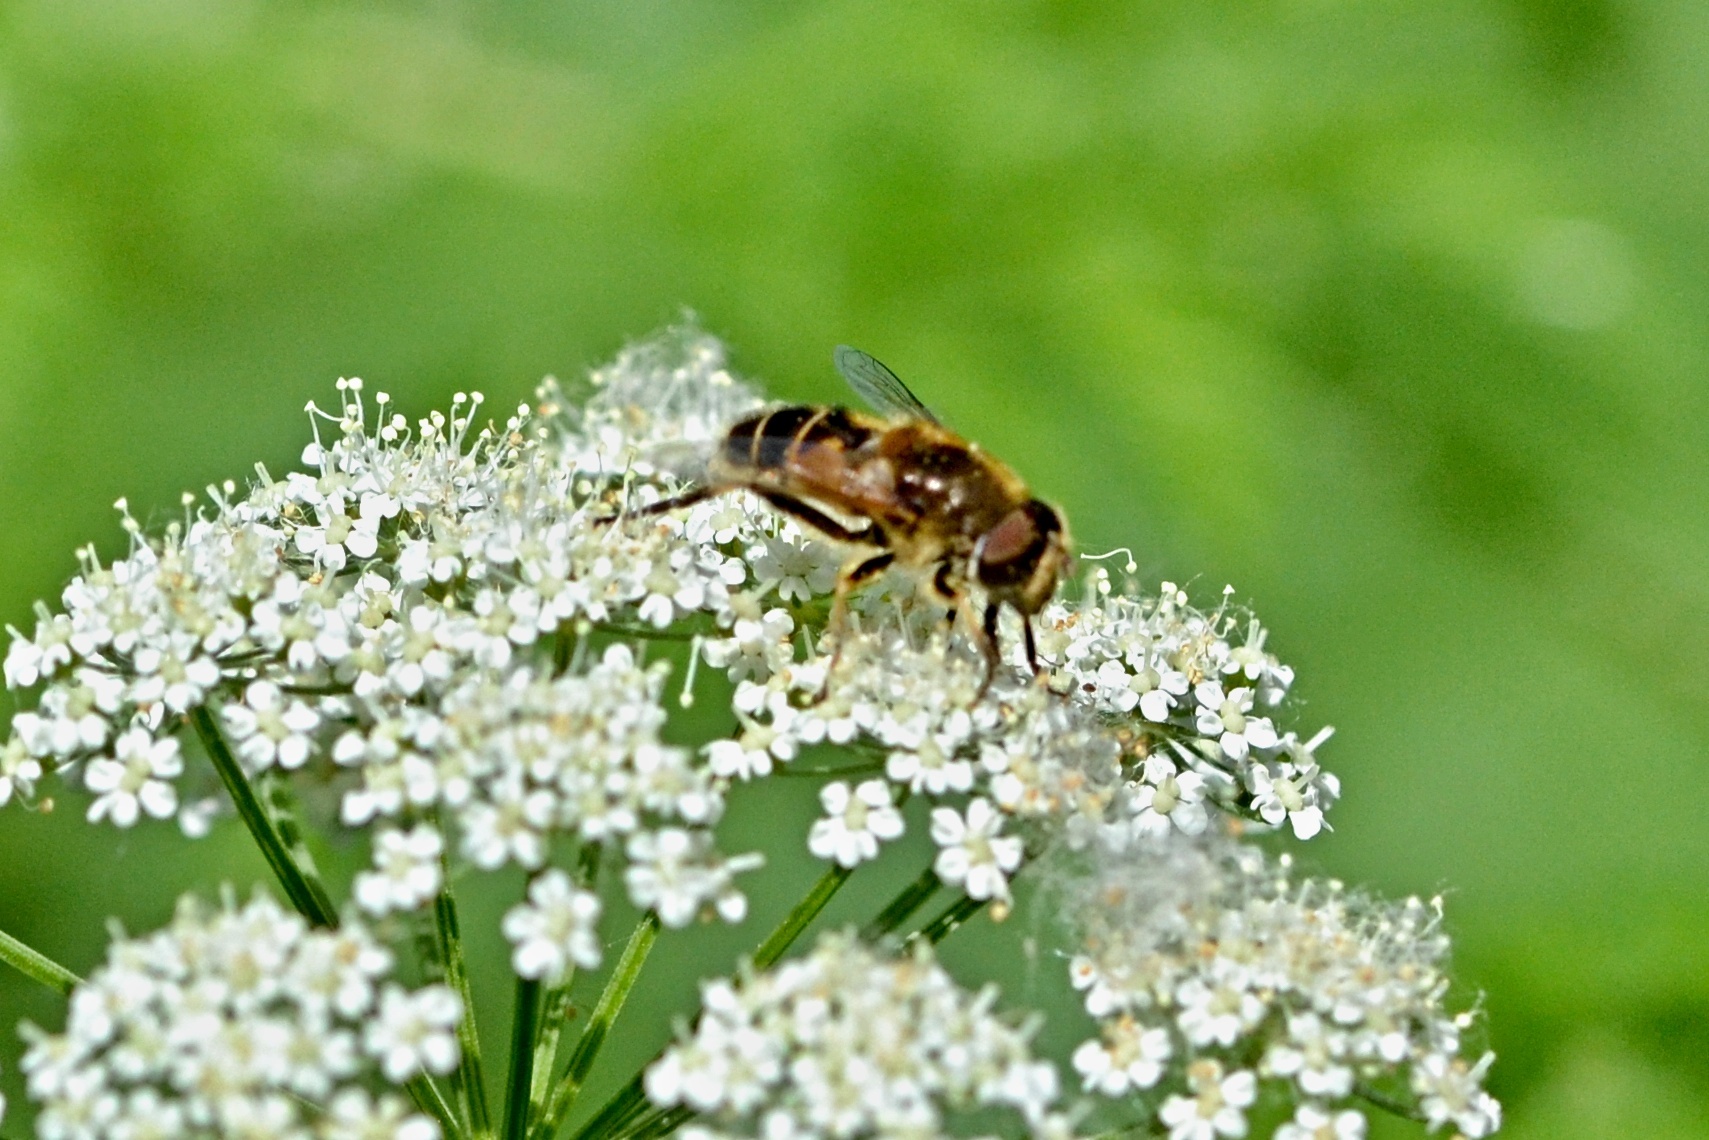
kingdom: Animalia
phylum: Arthropoda
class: Insecta
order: Diptera
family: Syrphidae
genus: Eristalis
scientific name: Eristalis nemorum
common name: Orange-spined drone fly
